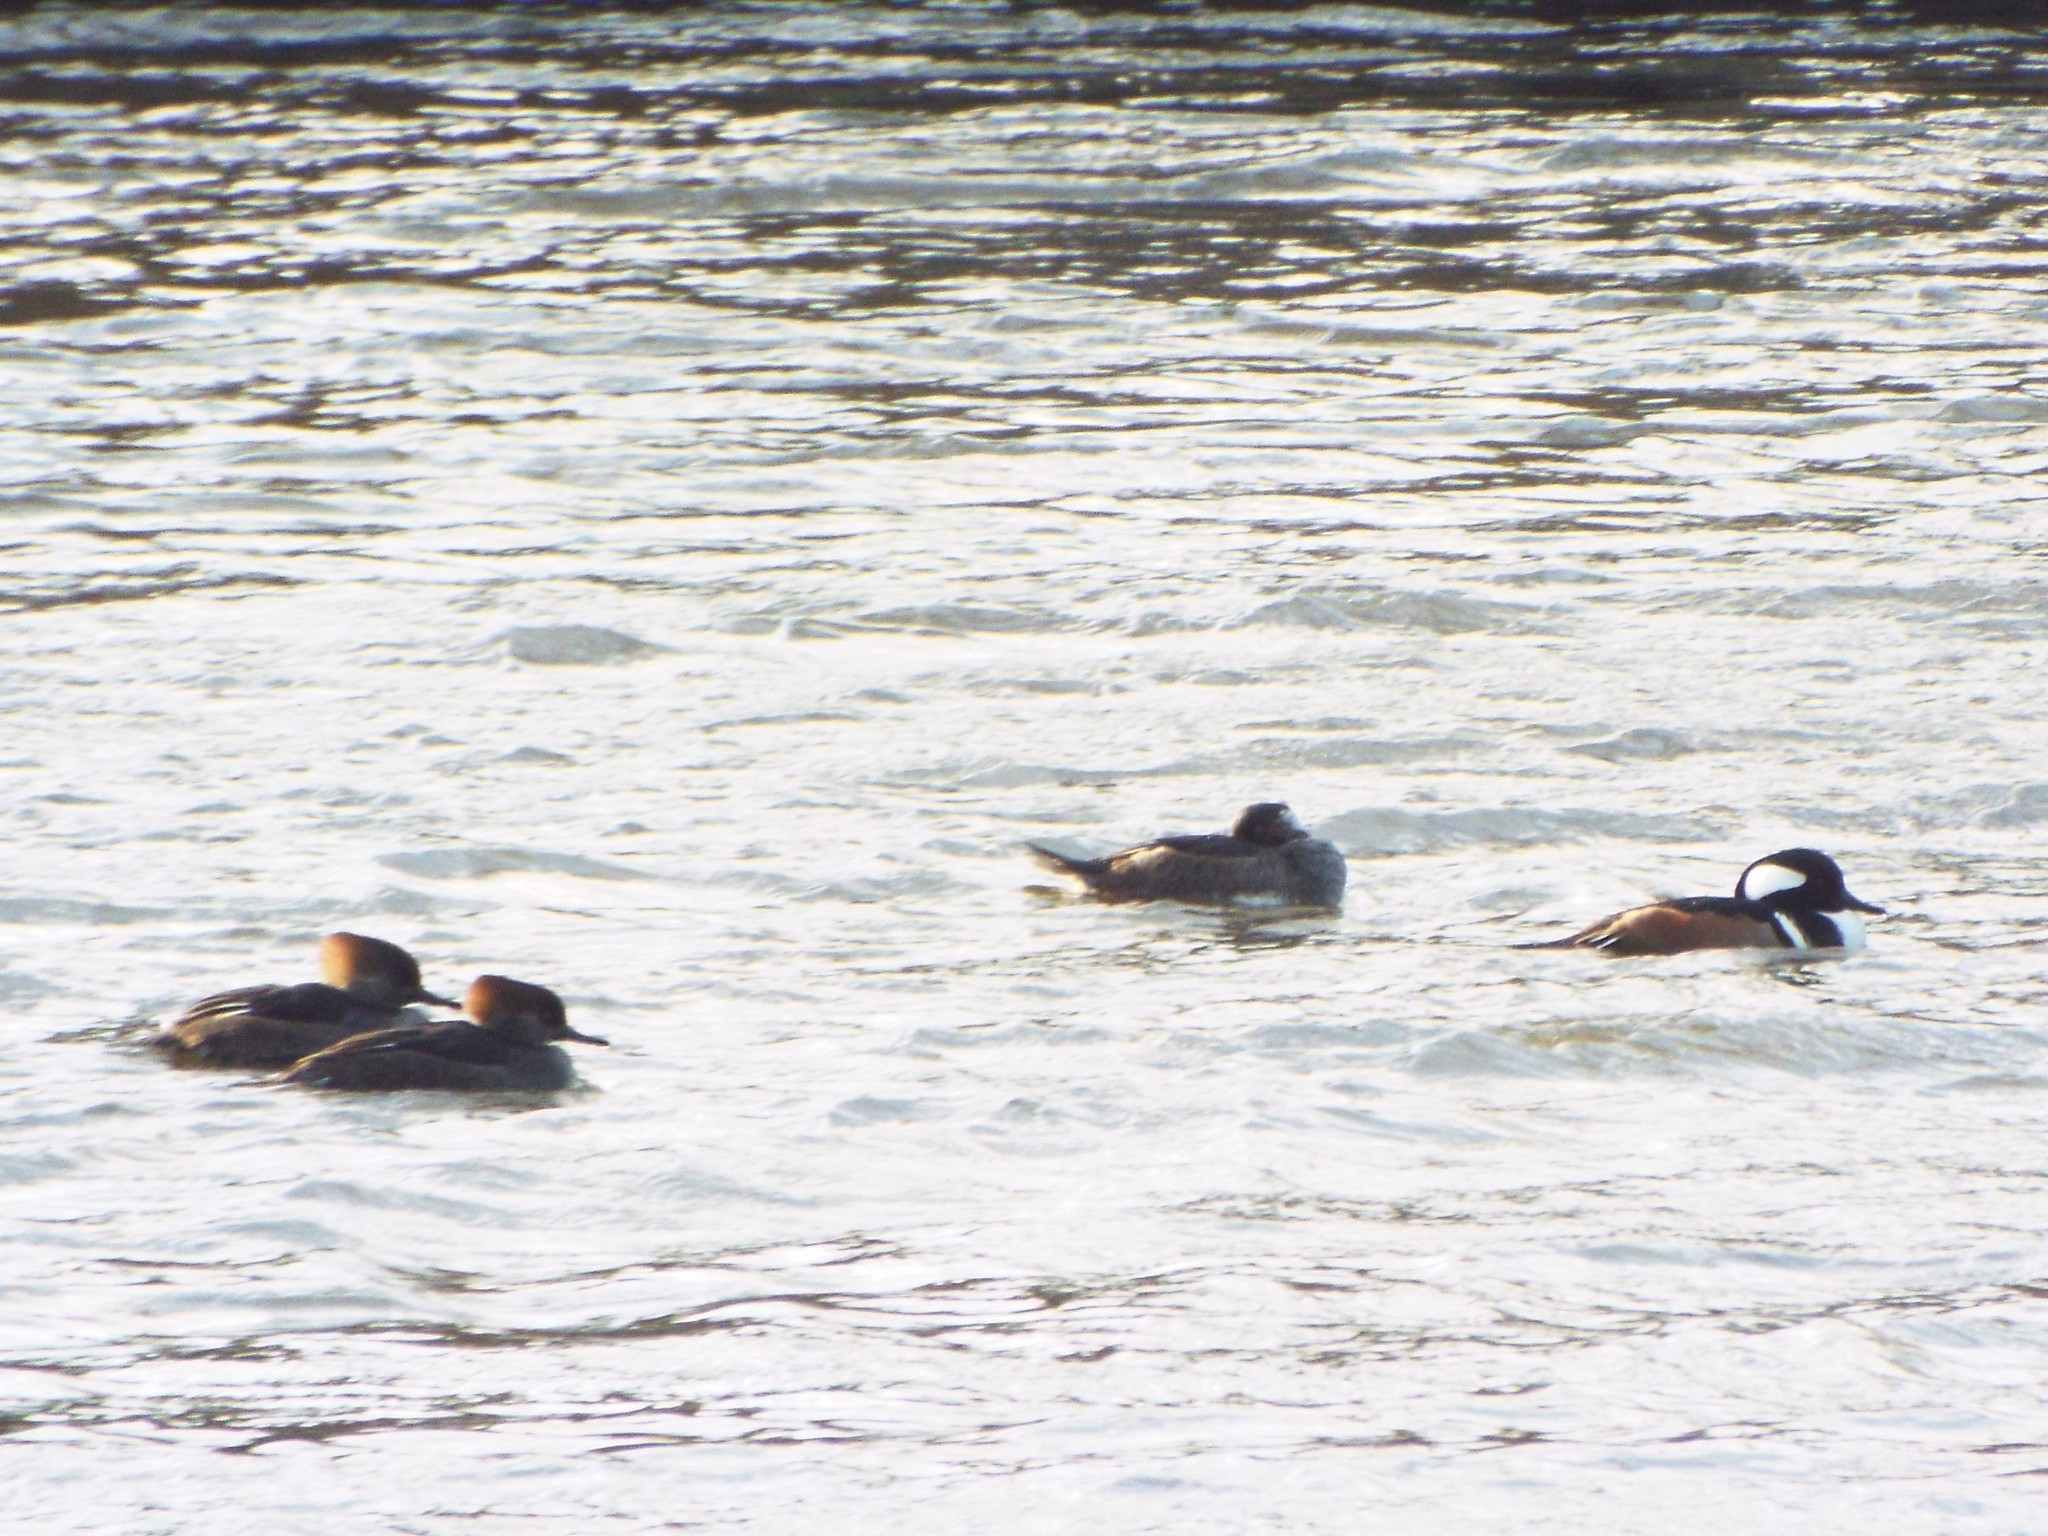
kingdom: Animalia
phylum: Chordata
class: Aves
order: Anseriformes
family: Anatidae
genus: Lophodytes
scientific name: Lophodytes cucullatus
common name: Hooded merganser
